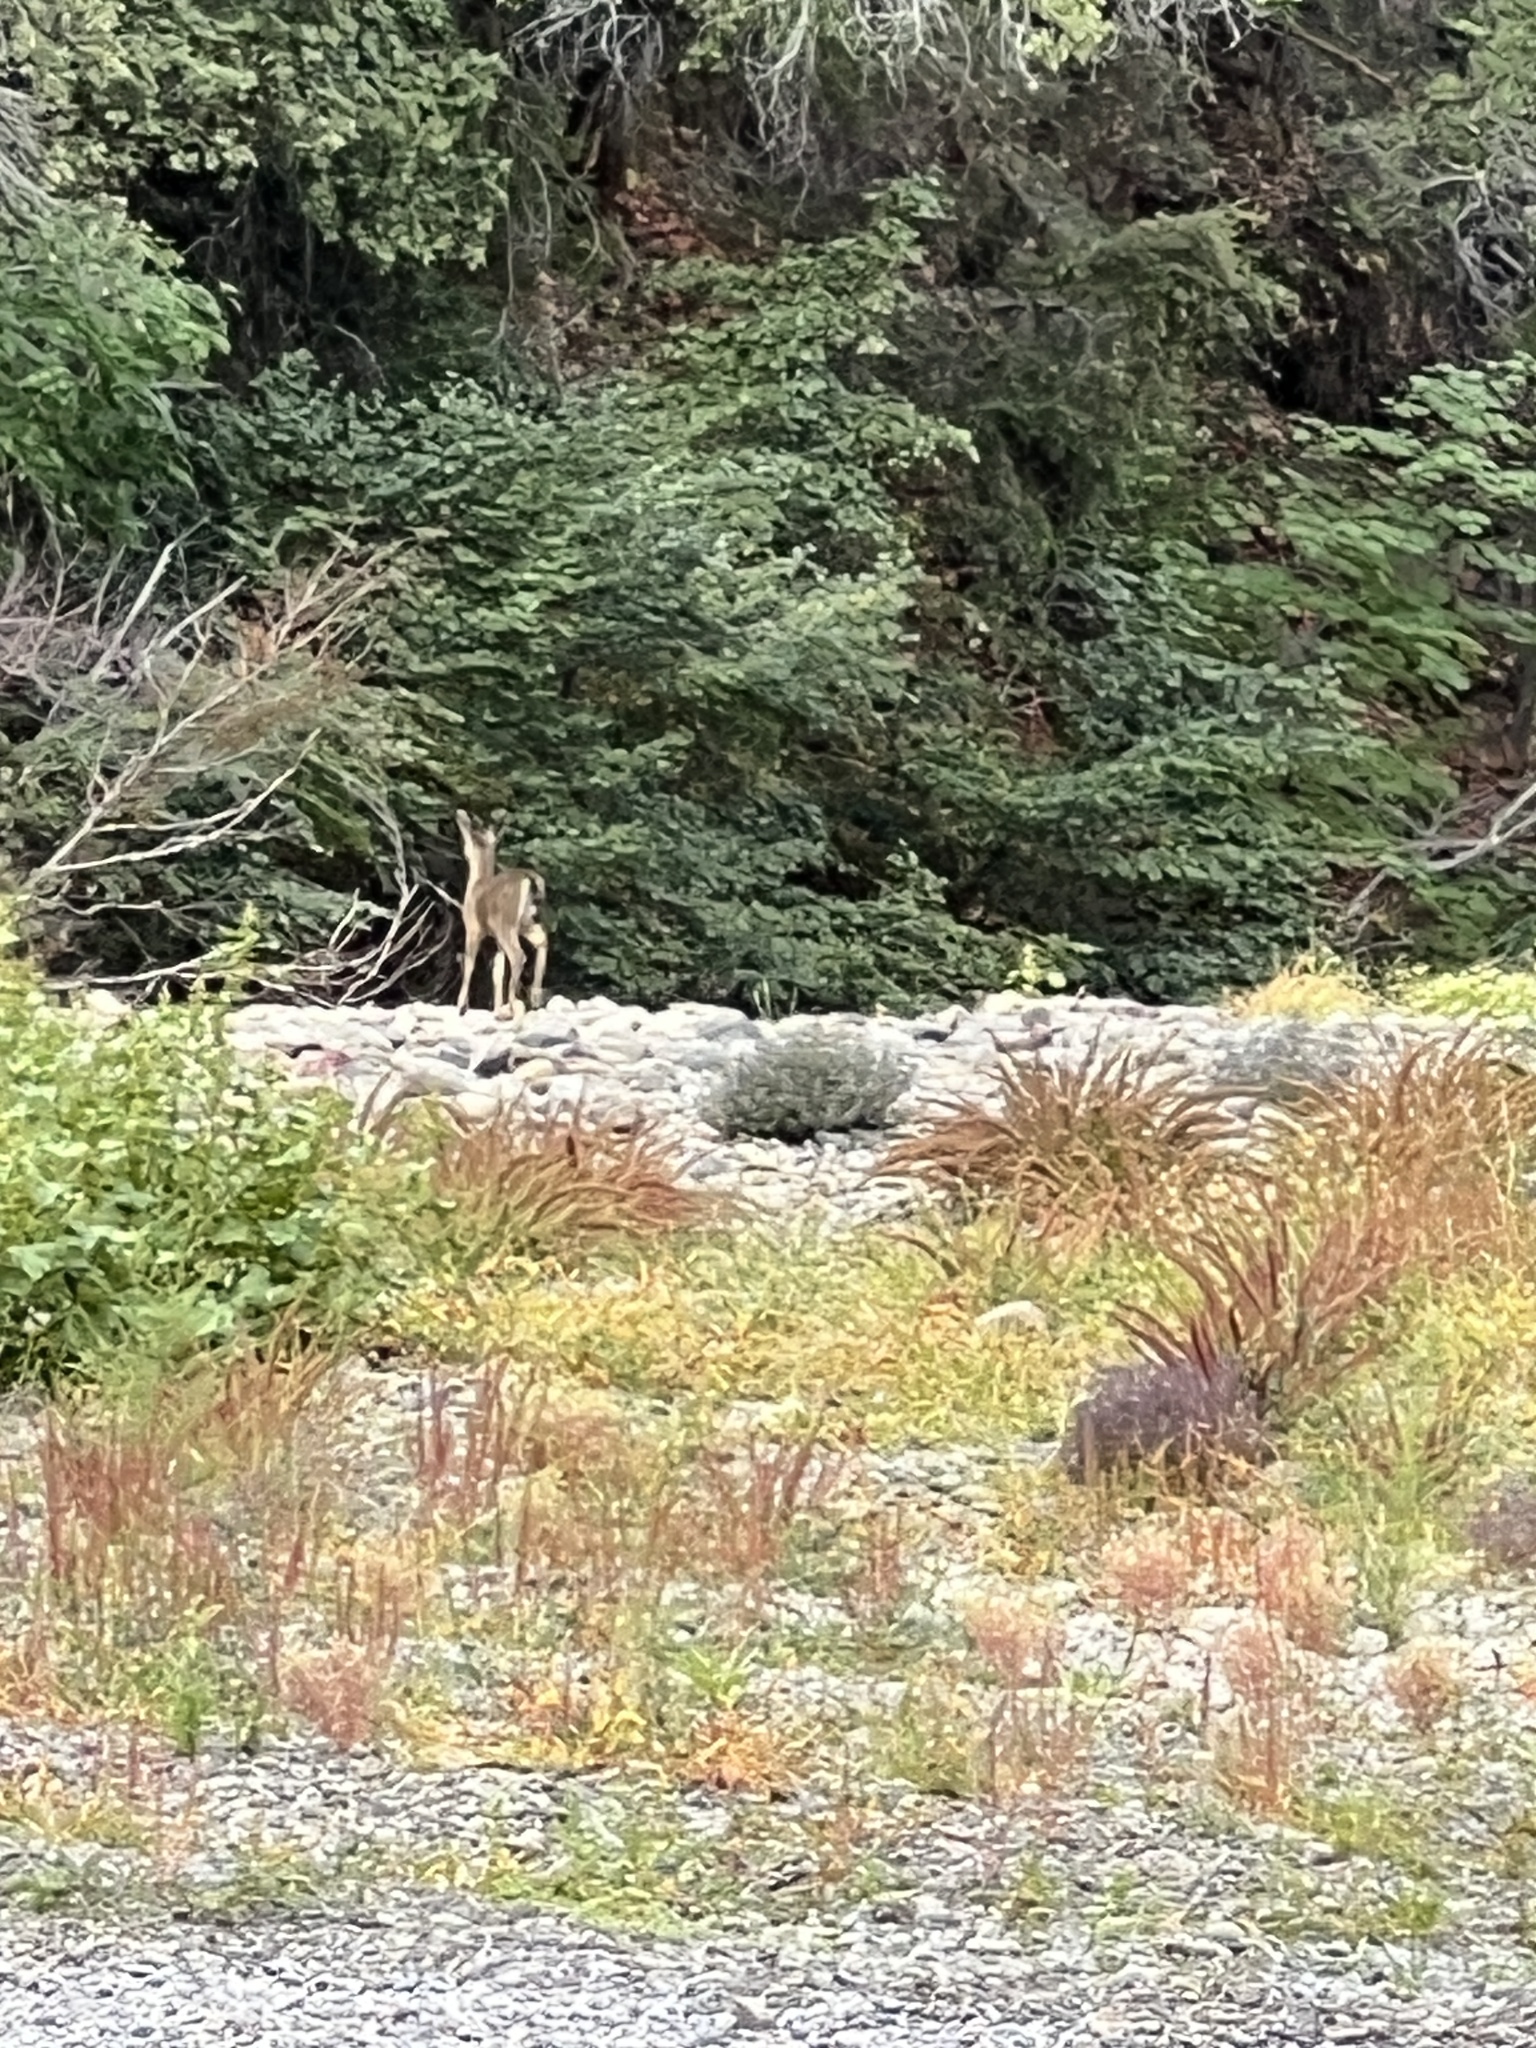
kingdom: Animalia
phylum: Chordata
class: Mammalia
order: Artiodactyla
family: Cervidae
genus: Odocoileus
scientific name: Odocoileus hemionus
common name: Mule deer
